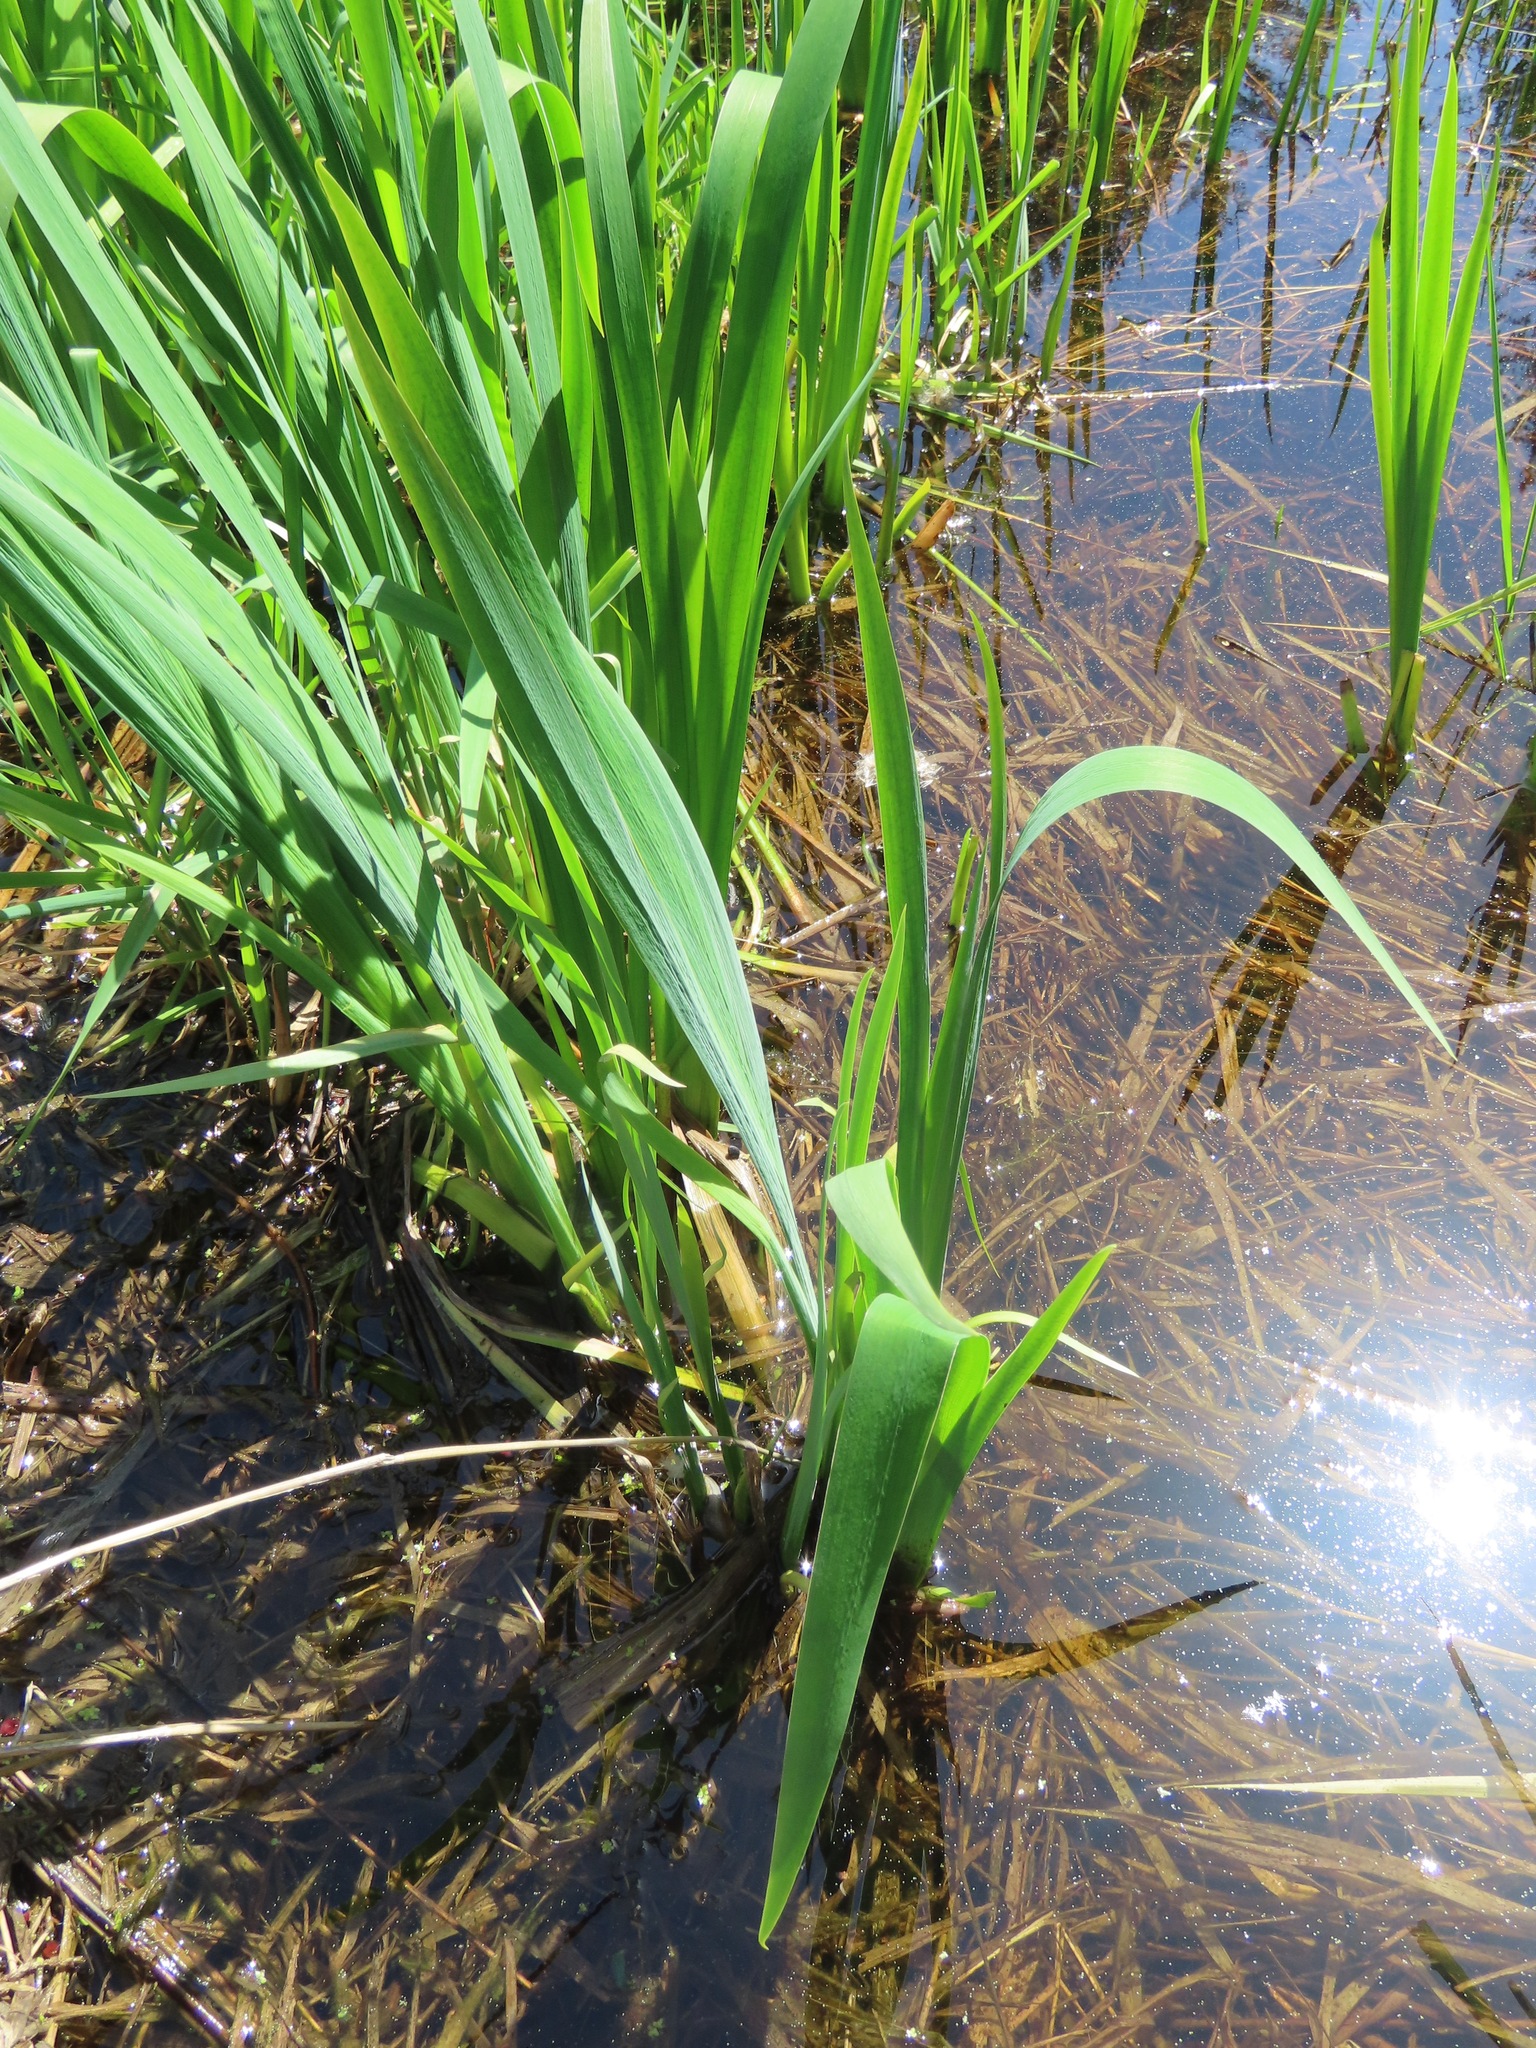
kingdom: Plantae
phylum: Tracheophyta
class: Liliopsida
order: Asparagales
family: Iridaceae
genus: Iris
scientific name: Iris pseudacorus
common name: Yellow flag
